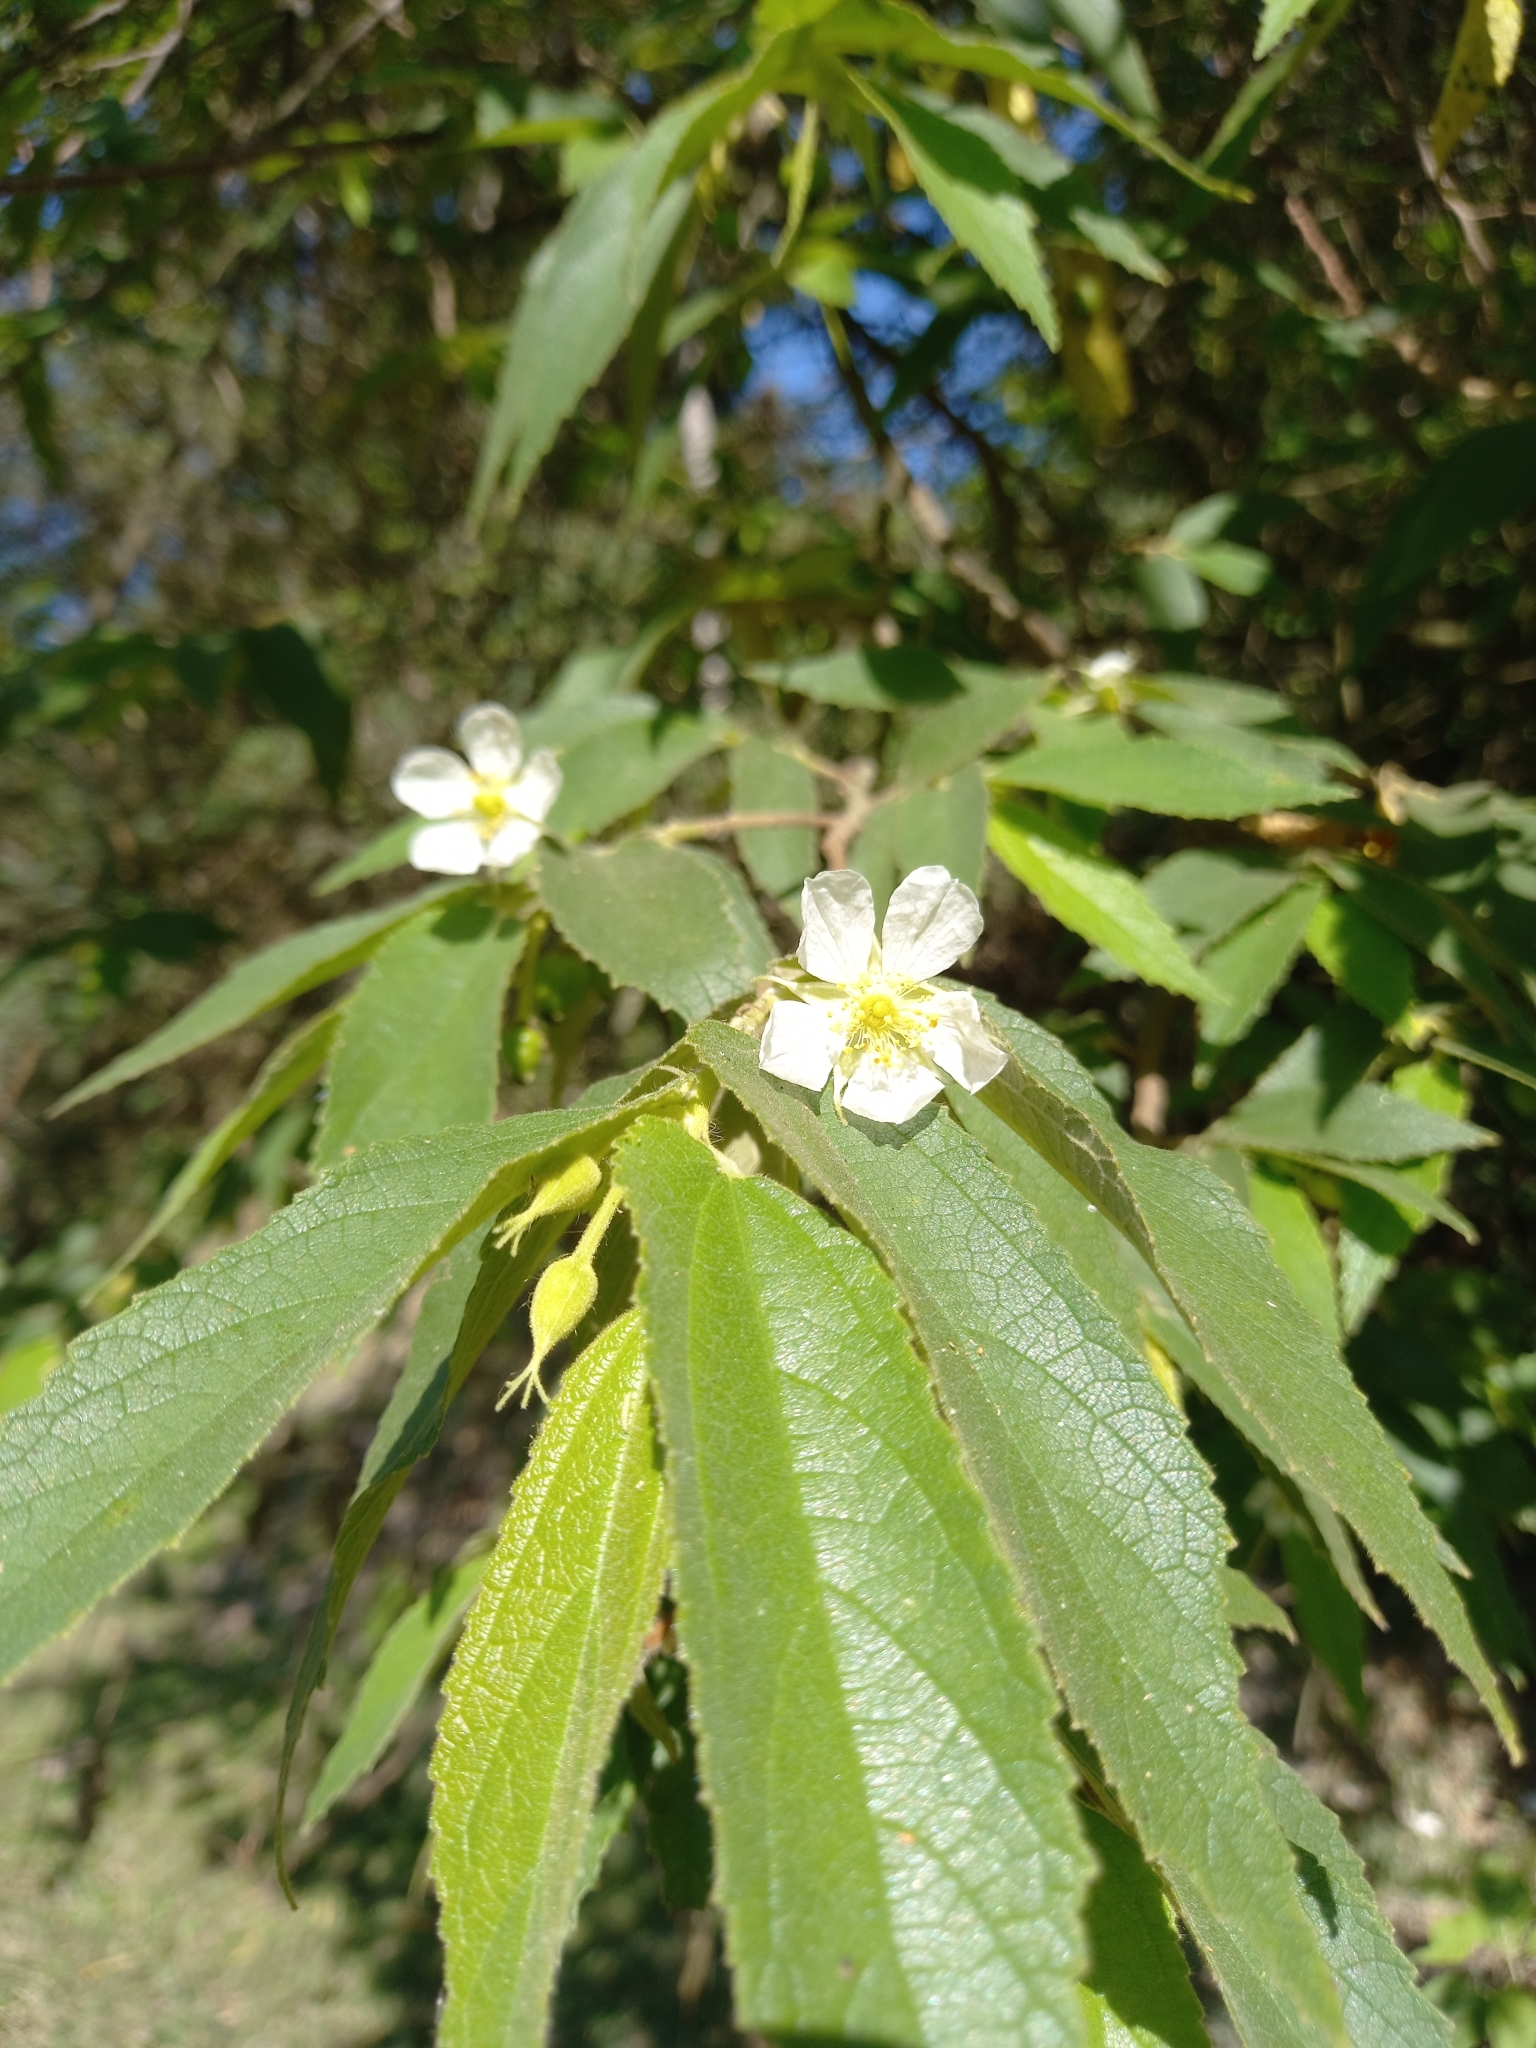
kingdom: Plantae
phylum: Tracheophyta
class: Magnoliopsida
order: Malvales
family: Muntingiaceae
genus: Muntingia
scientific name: Muntingia calabura
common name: Strawberrytree
